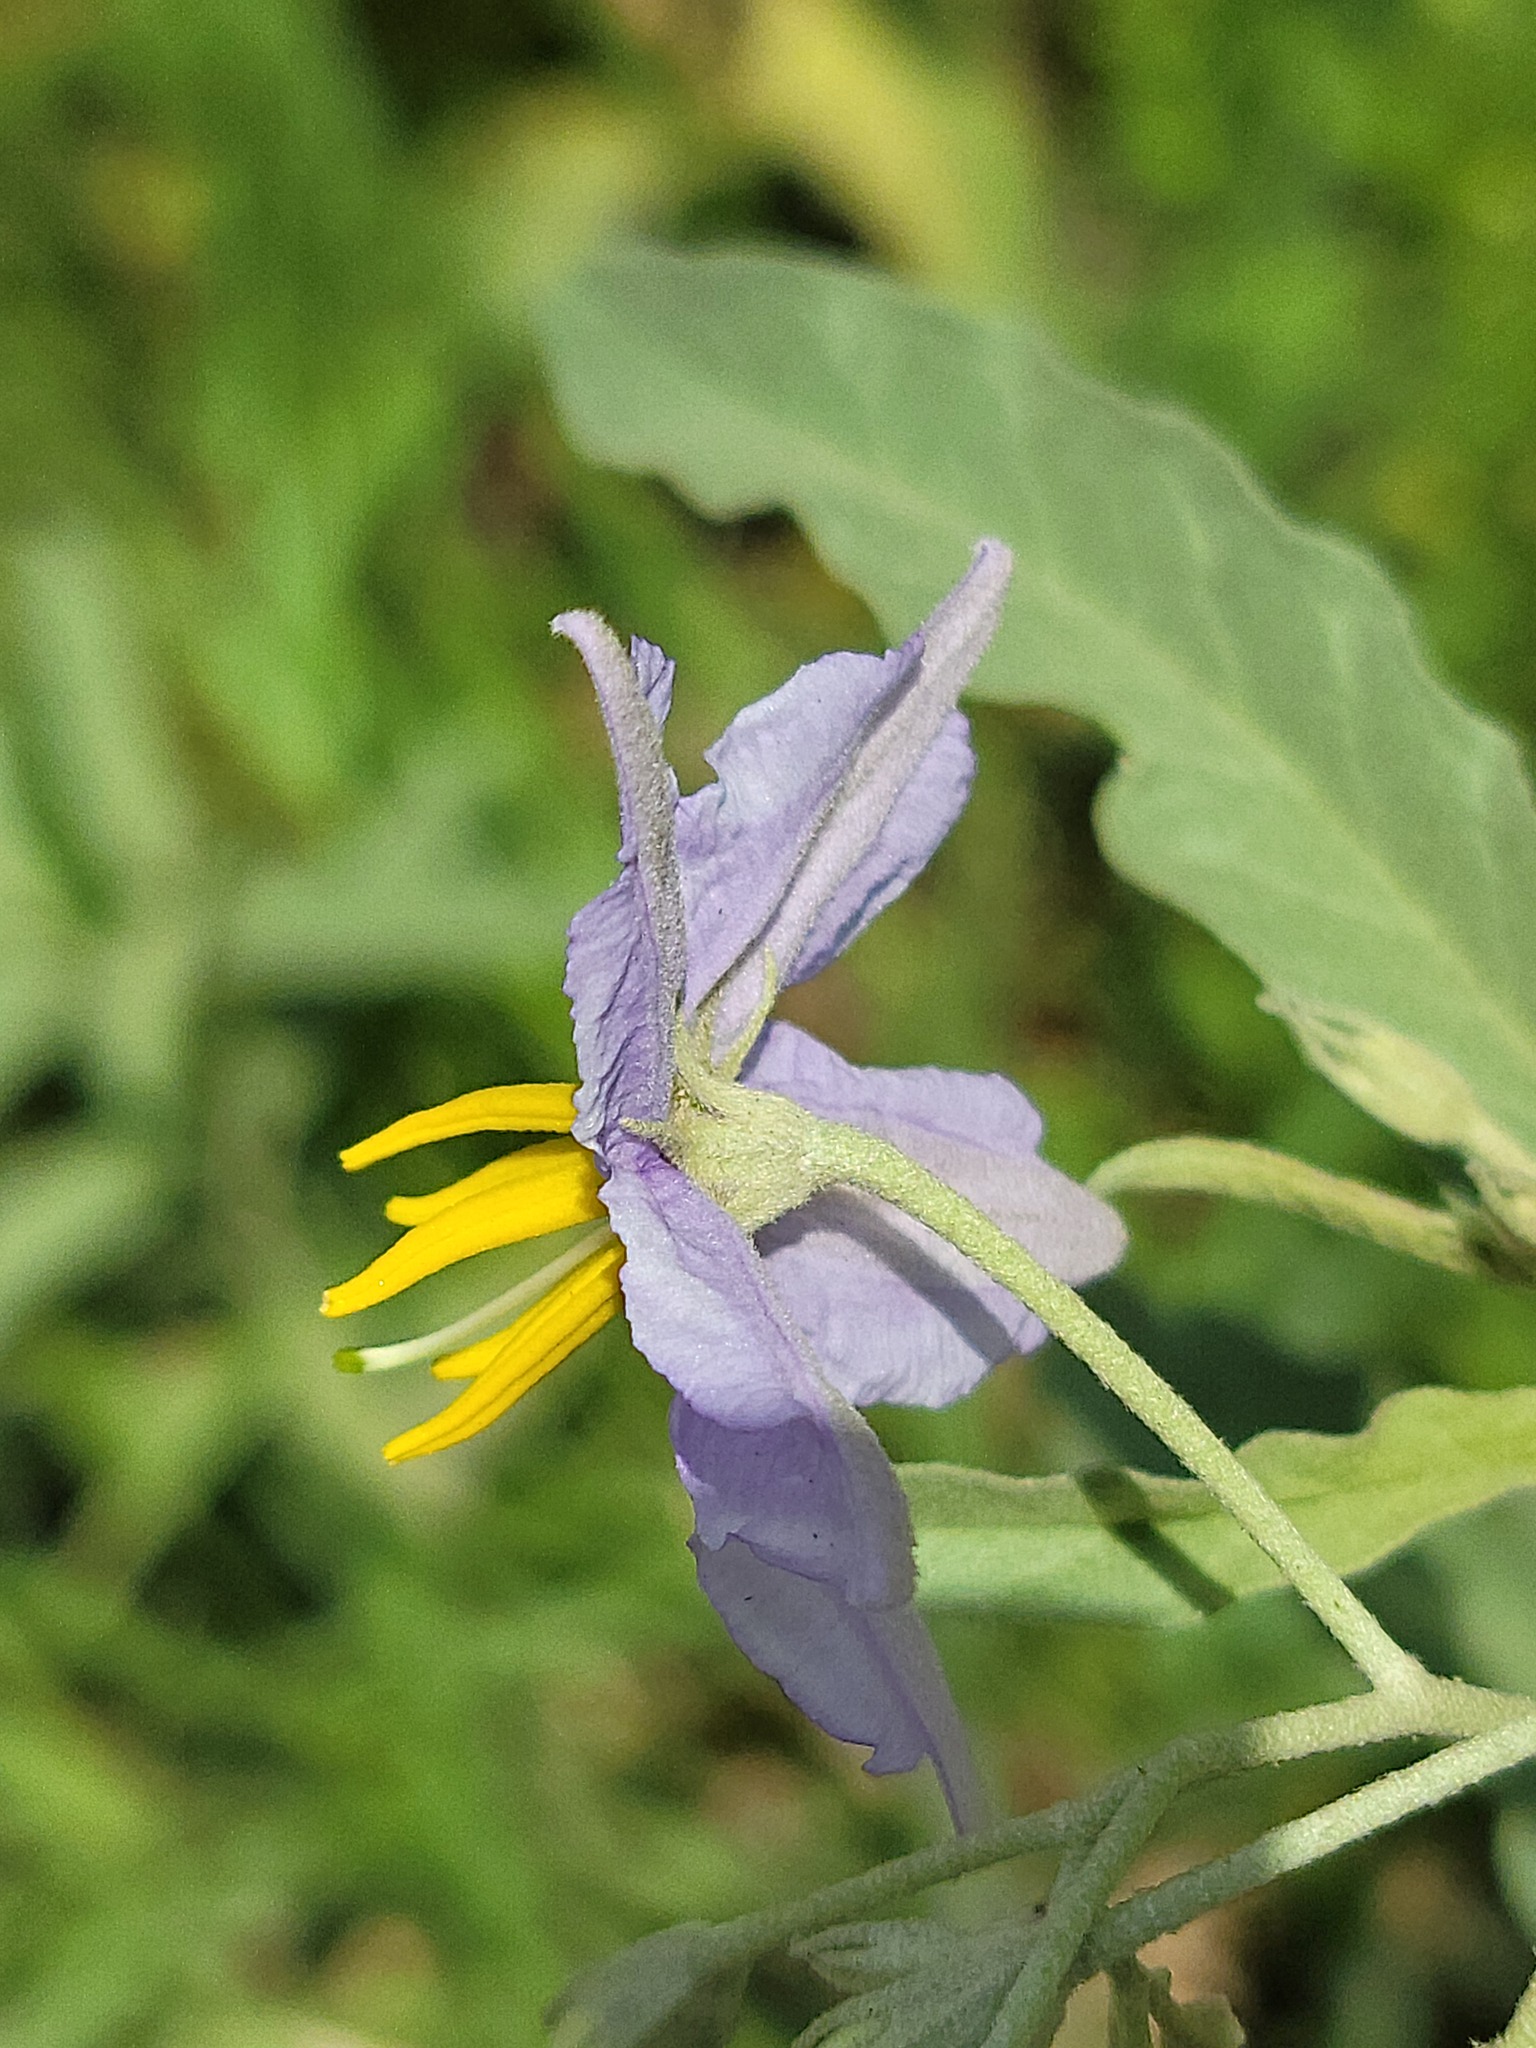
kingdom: Plantae
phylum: Tracheophyta
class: Magnoliopsida
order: Solanales
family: Solanaceae
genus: Solanum
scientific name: Solanum elaeagnifolium
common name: Silverleaf nightshade
